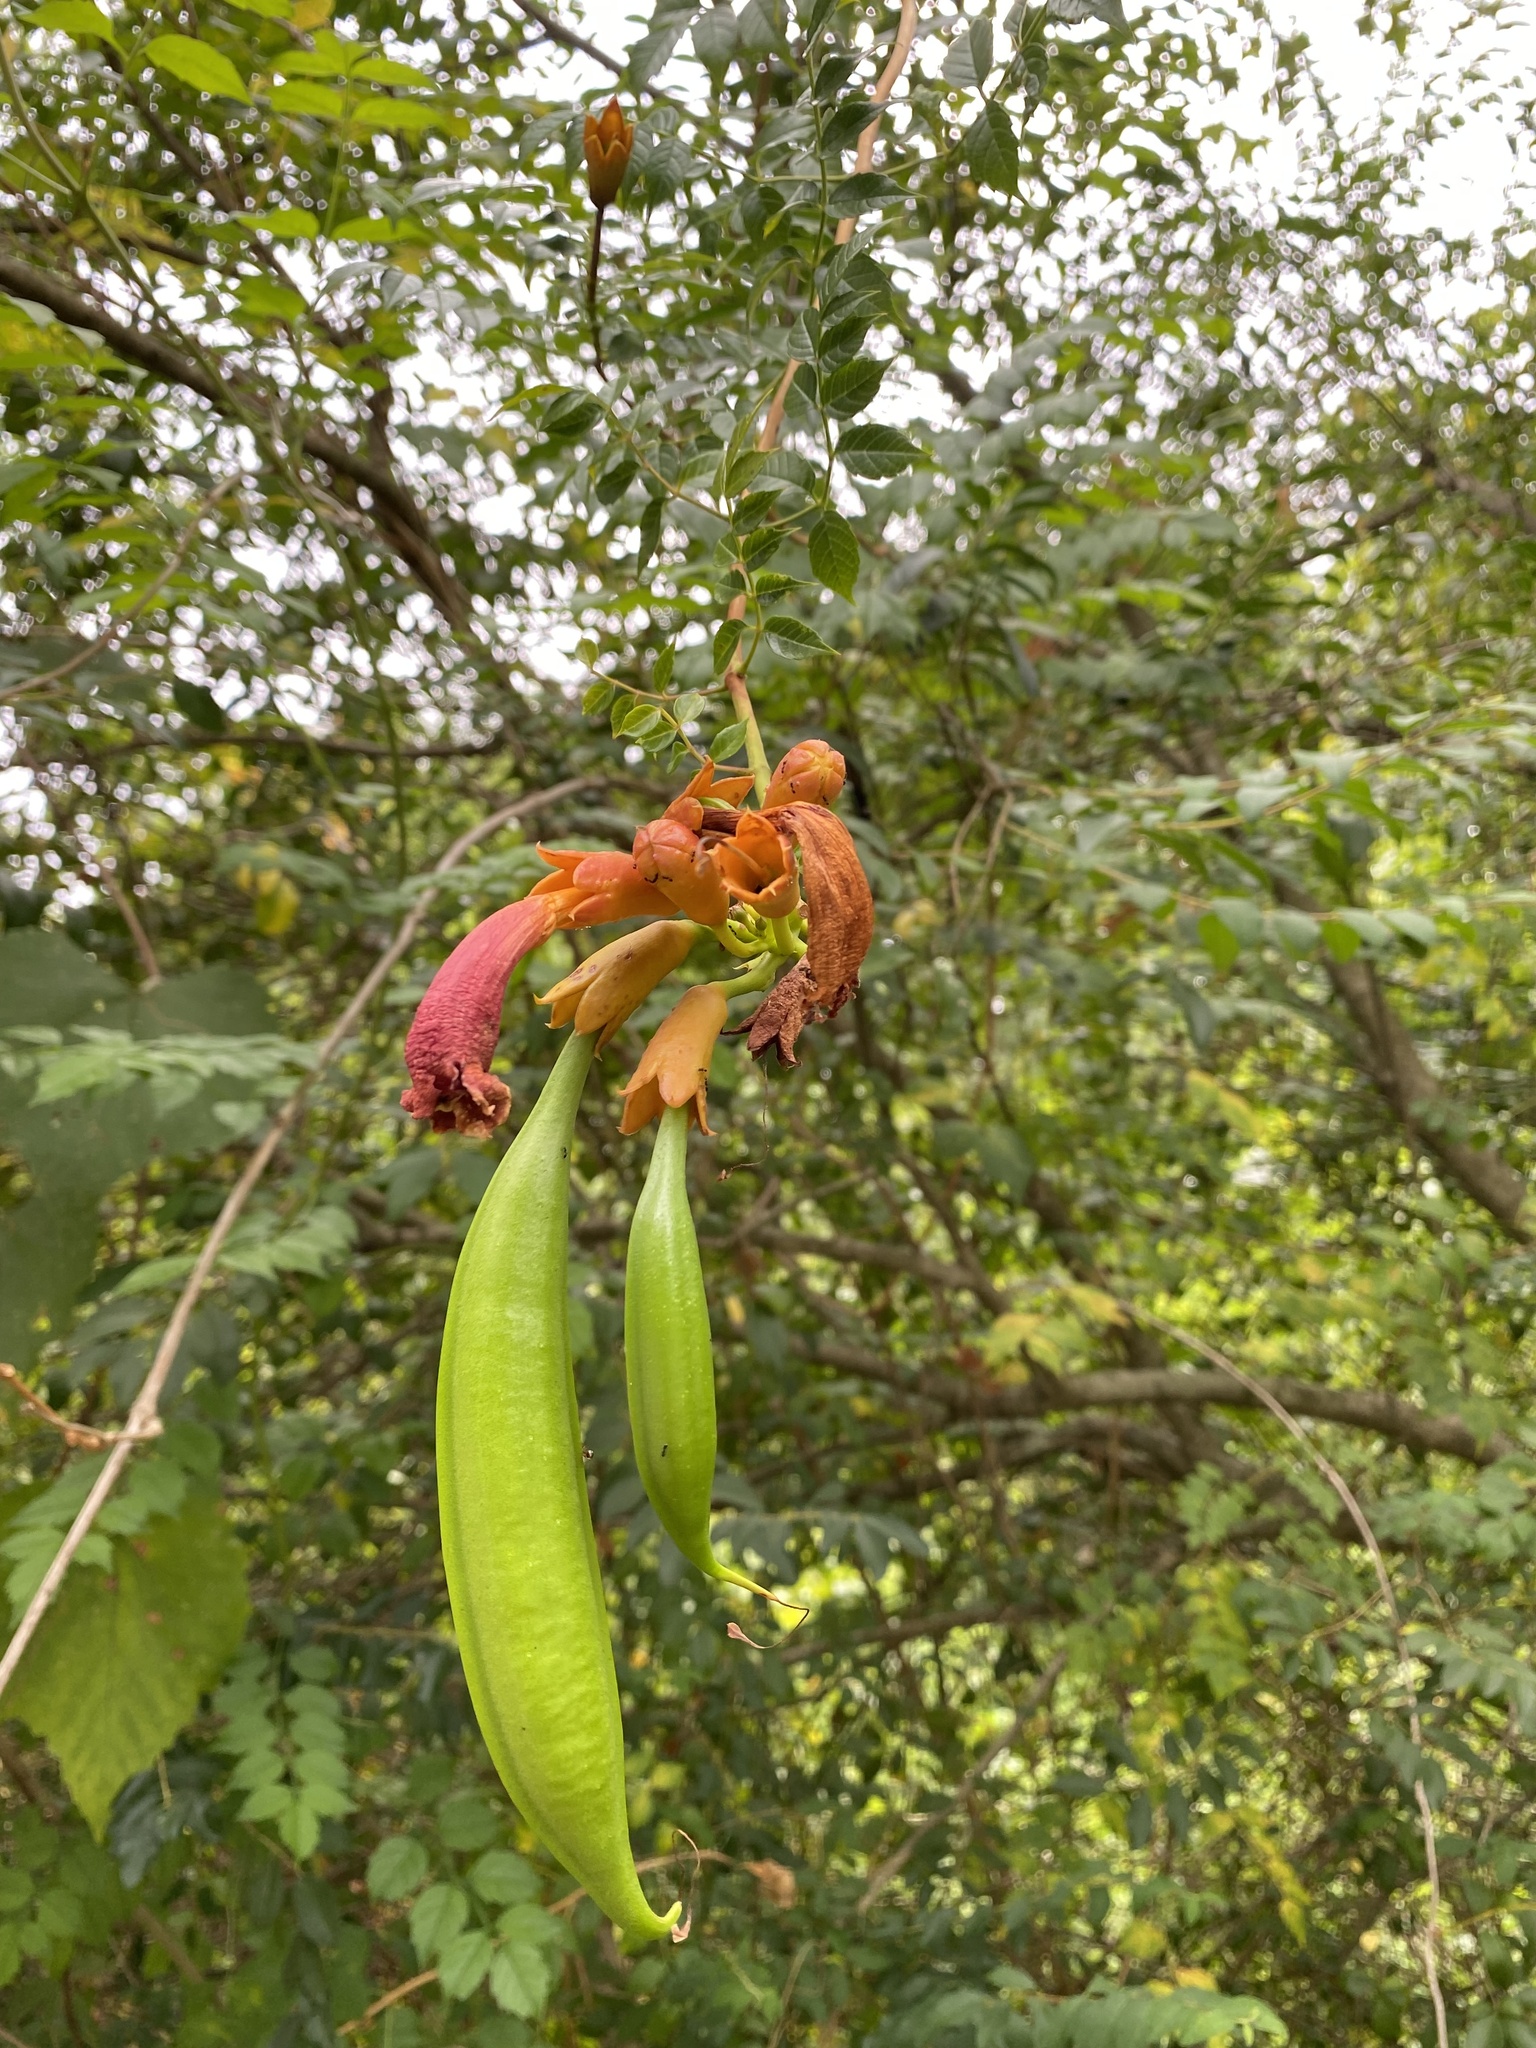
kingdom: Plantae
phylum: Tracheophyta
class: Magnoliopsida
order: Lamiales
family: Bignoniaceae
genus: Campsis
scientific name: Campsis radicans
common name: Trumpet-creeper
